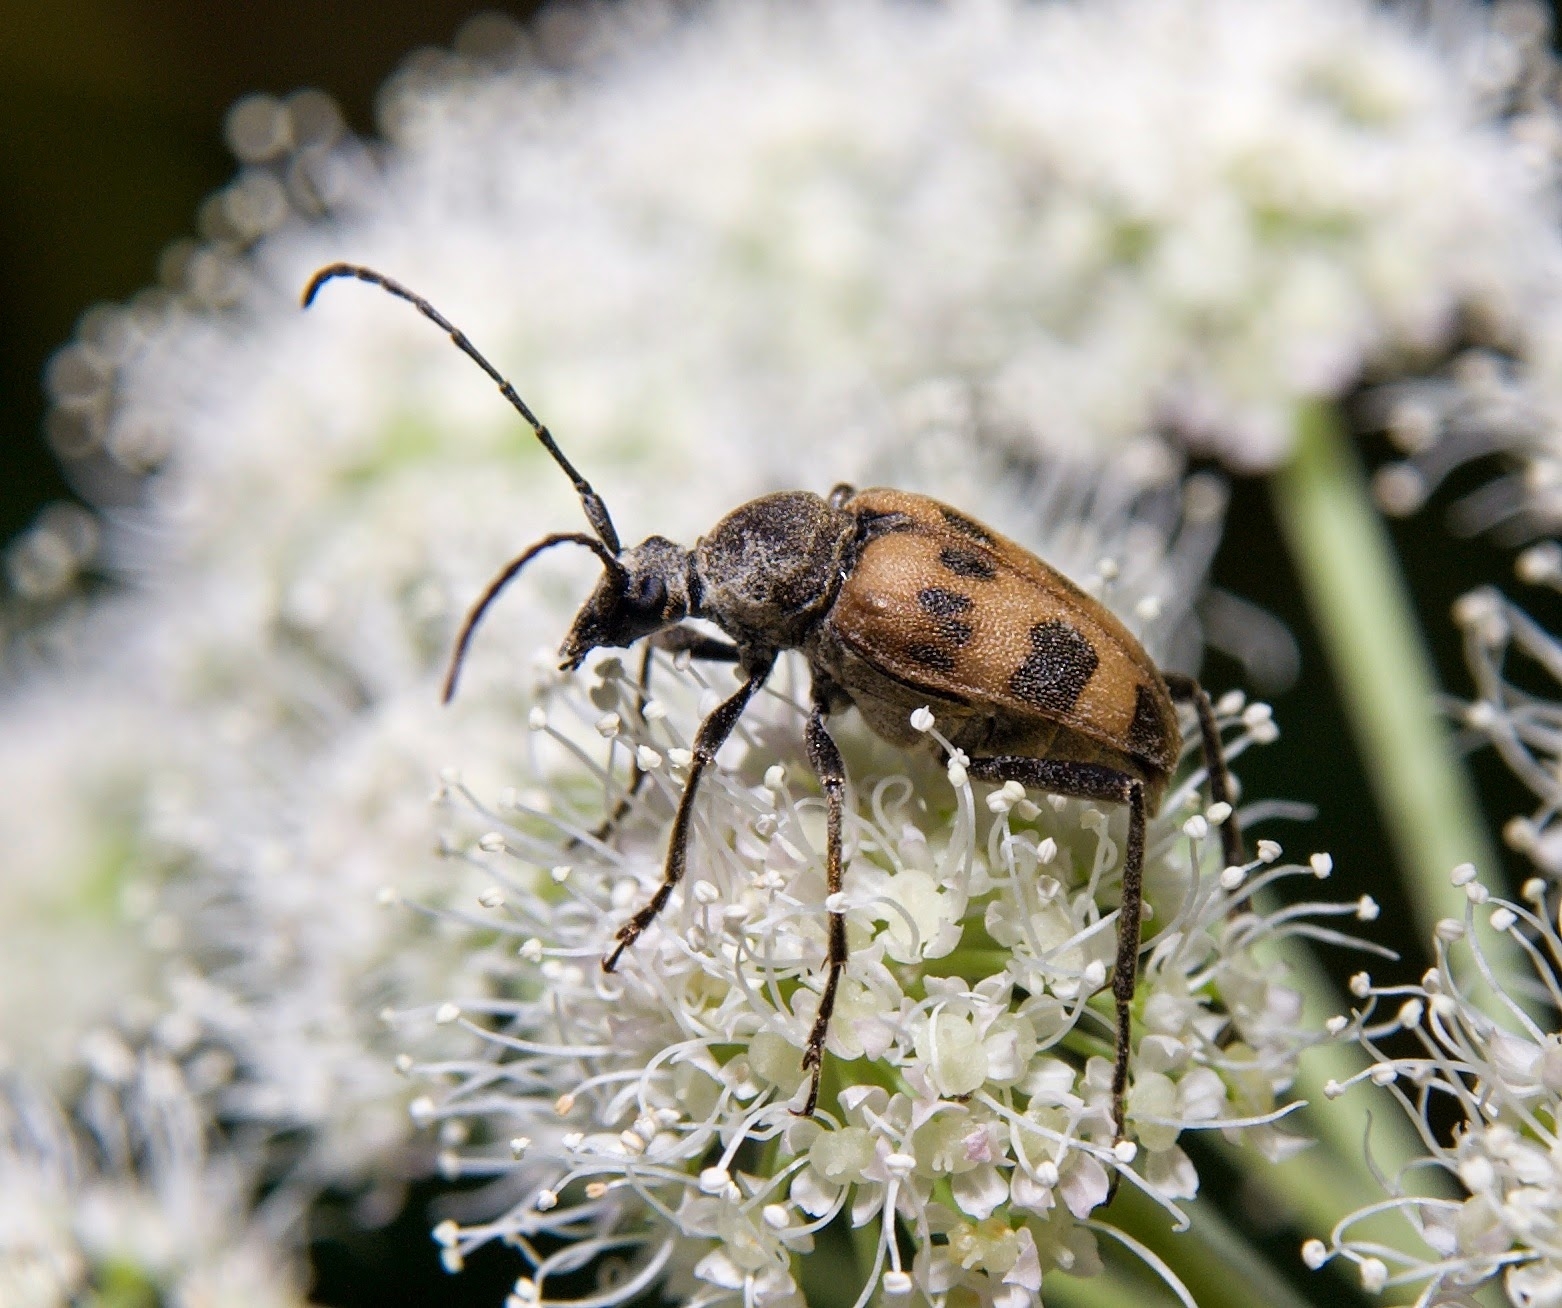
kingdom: Animalia
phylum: Arthropoda
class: Insecta
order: Coleoptera
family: Cerambycidae
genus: Pachytodes
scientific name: Pachytodes cerambyciformis
